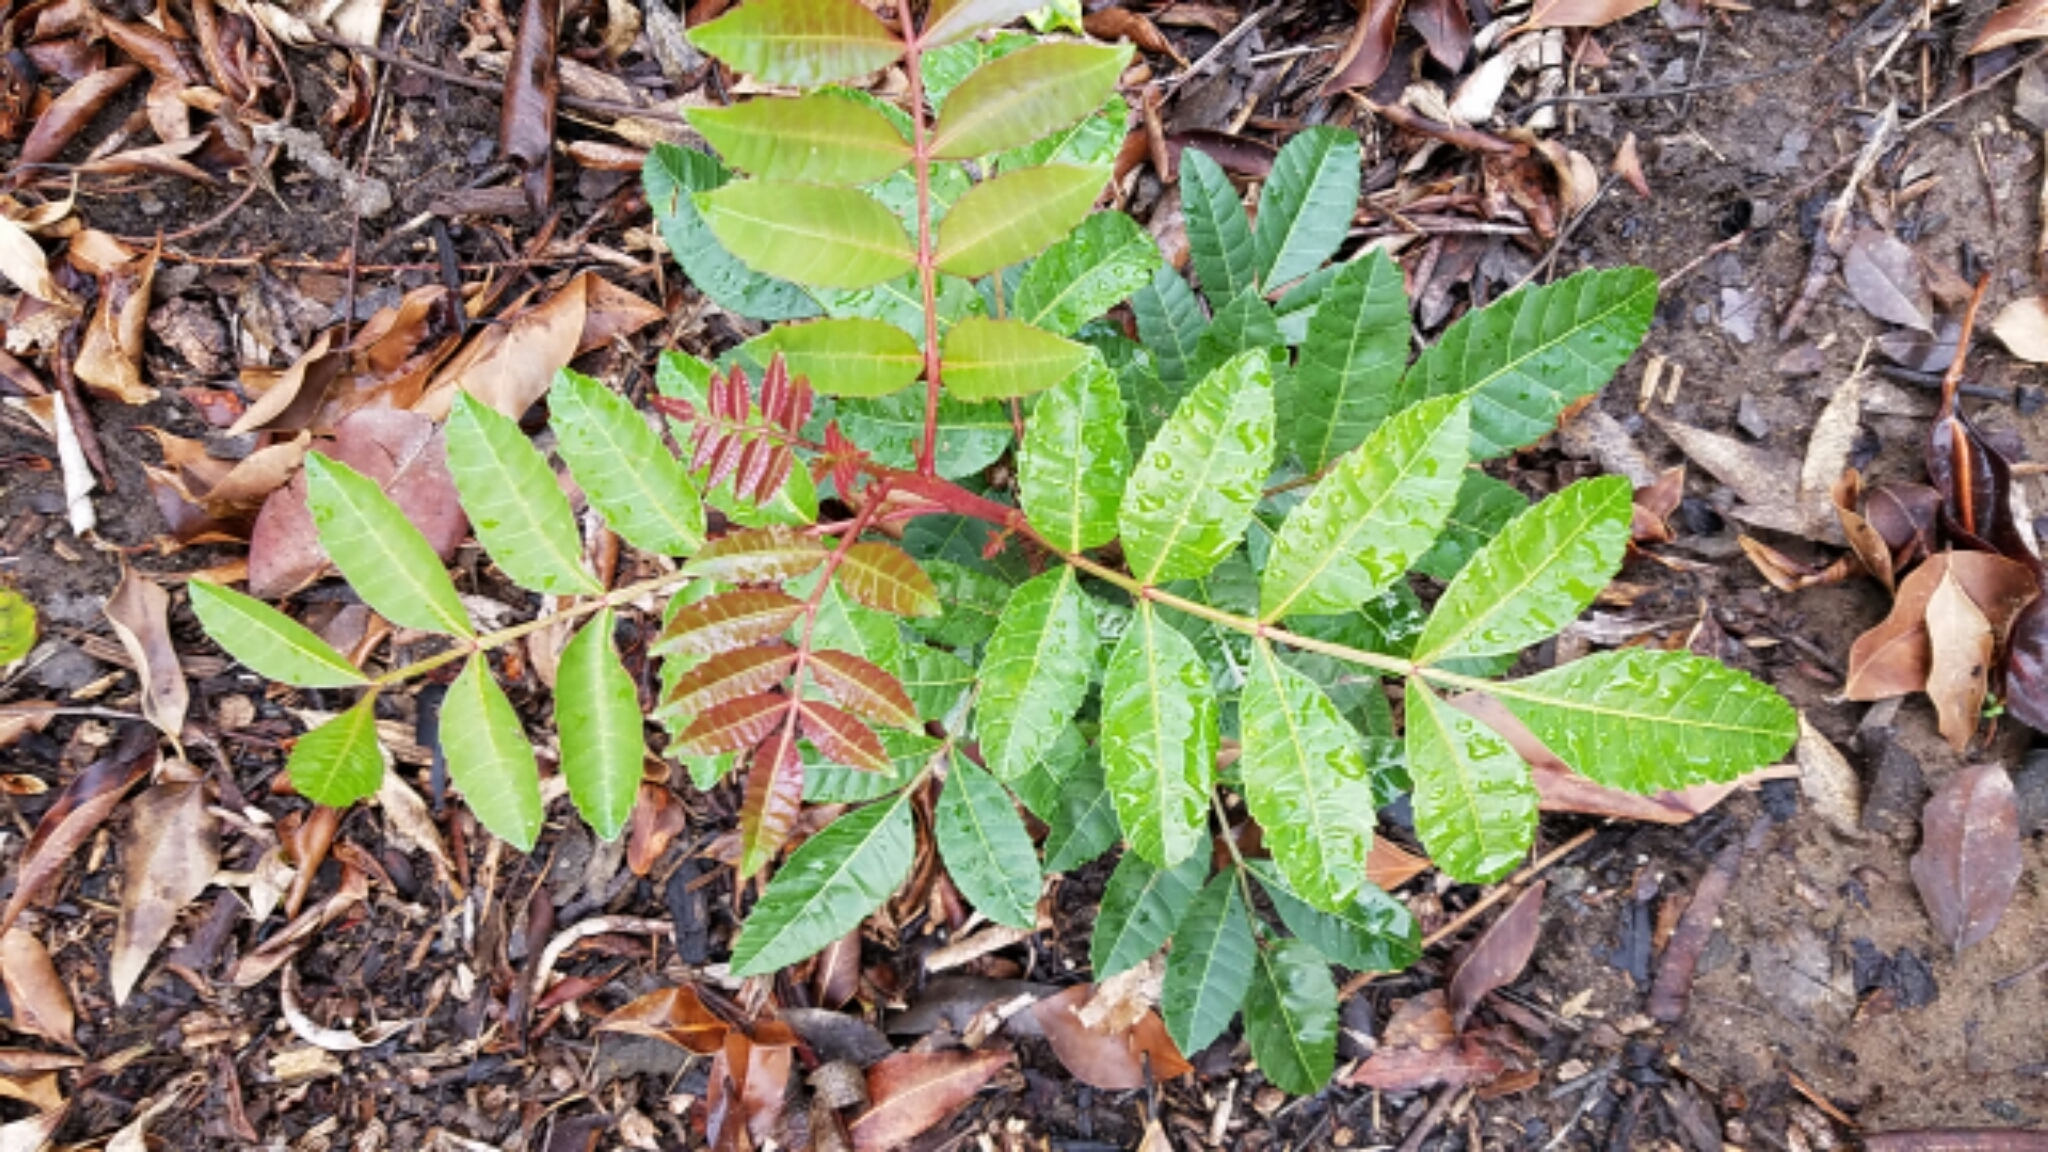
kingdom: Plantae
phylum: Tracheophyta
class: Magnoliopsida
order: Sapindales
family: Anacardiaceae
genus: Schinus
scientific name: Schinus terebinthifolia
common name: Brazilian peppertree
